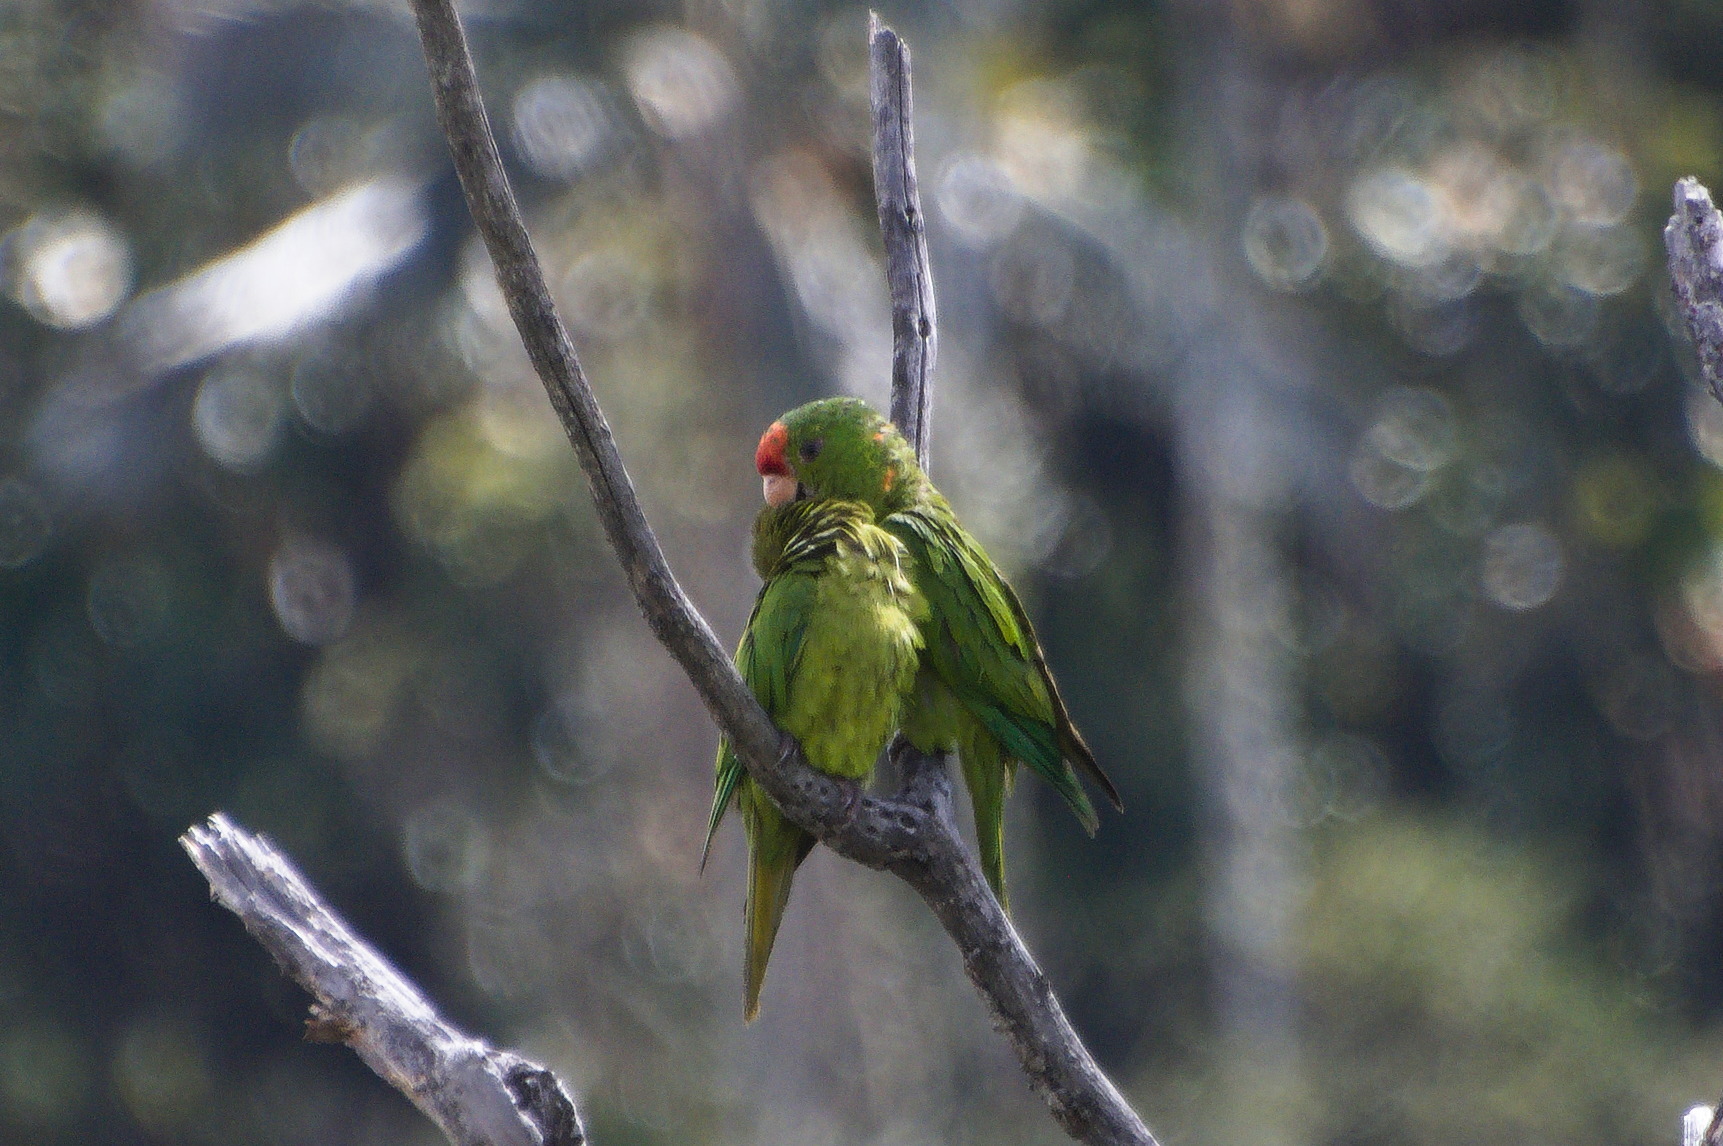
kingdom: Animalia
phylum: Chordata
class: Aves
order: Psittaciformes
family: Psittacidae
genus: Aratinga
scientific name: Aratinga wagleri
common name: Scarlet-fronted parakeet
